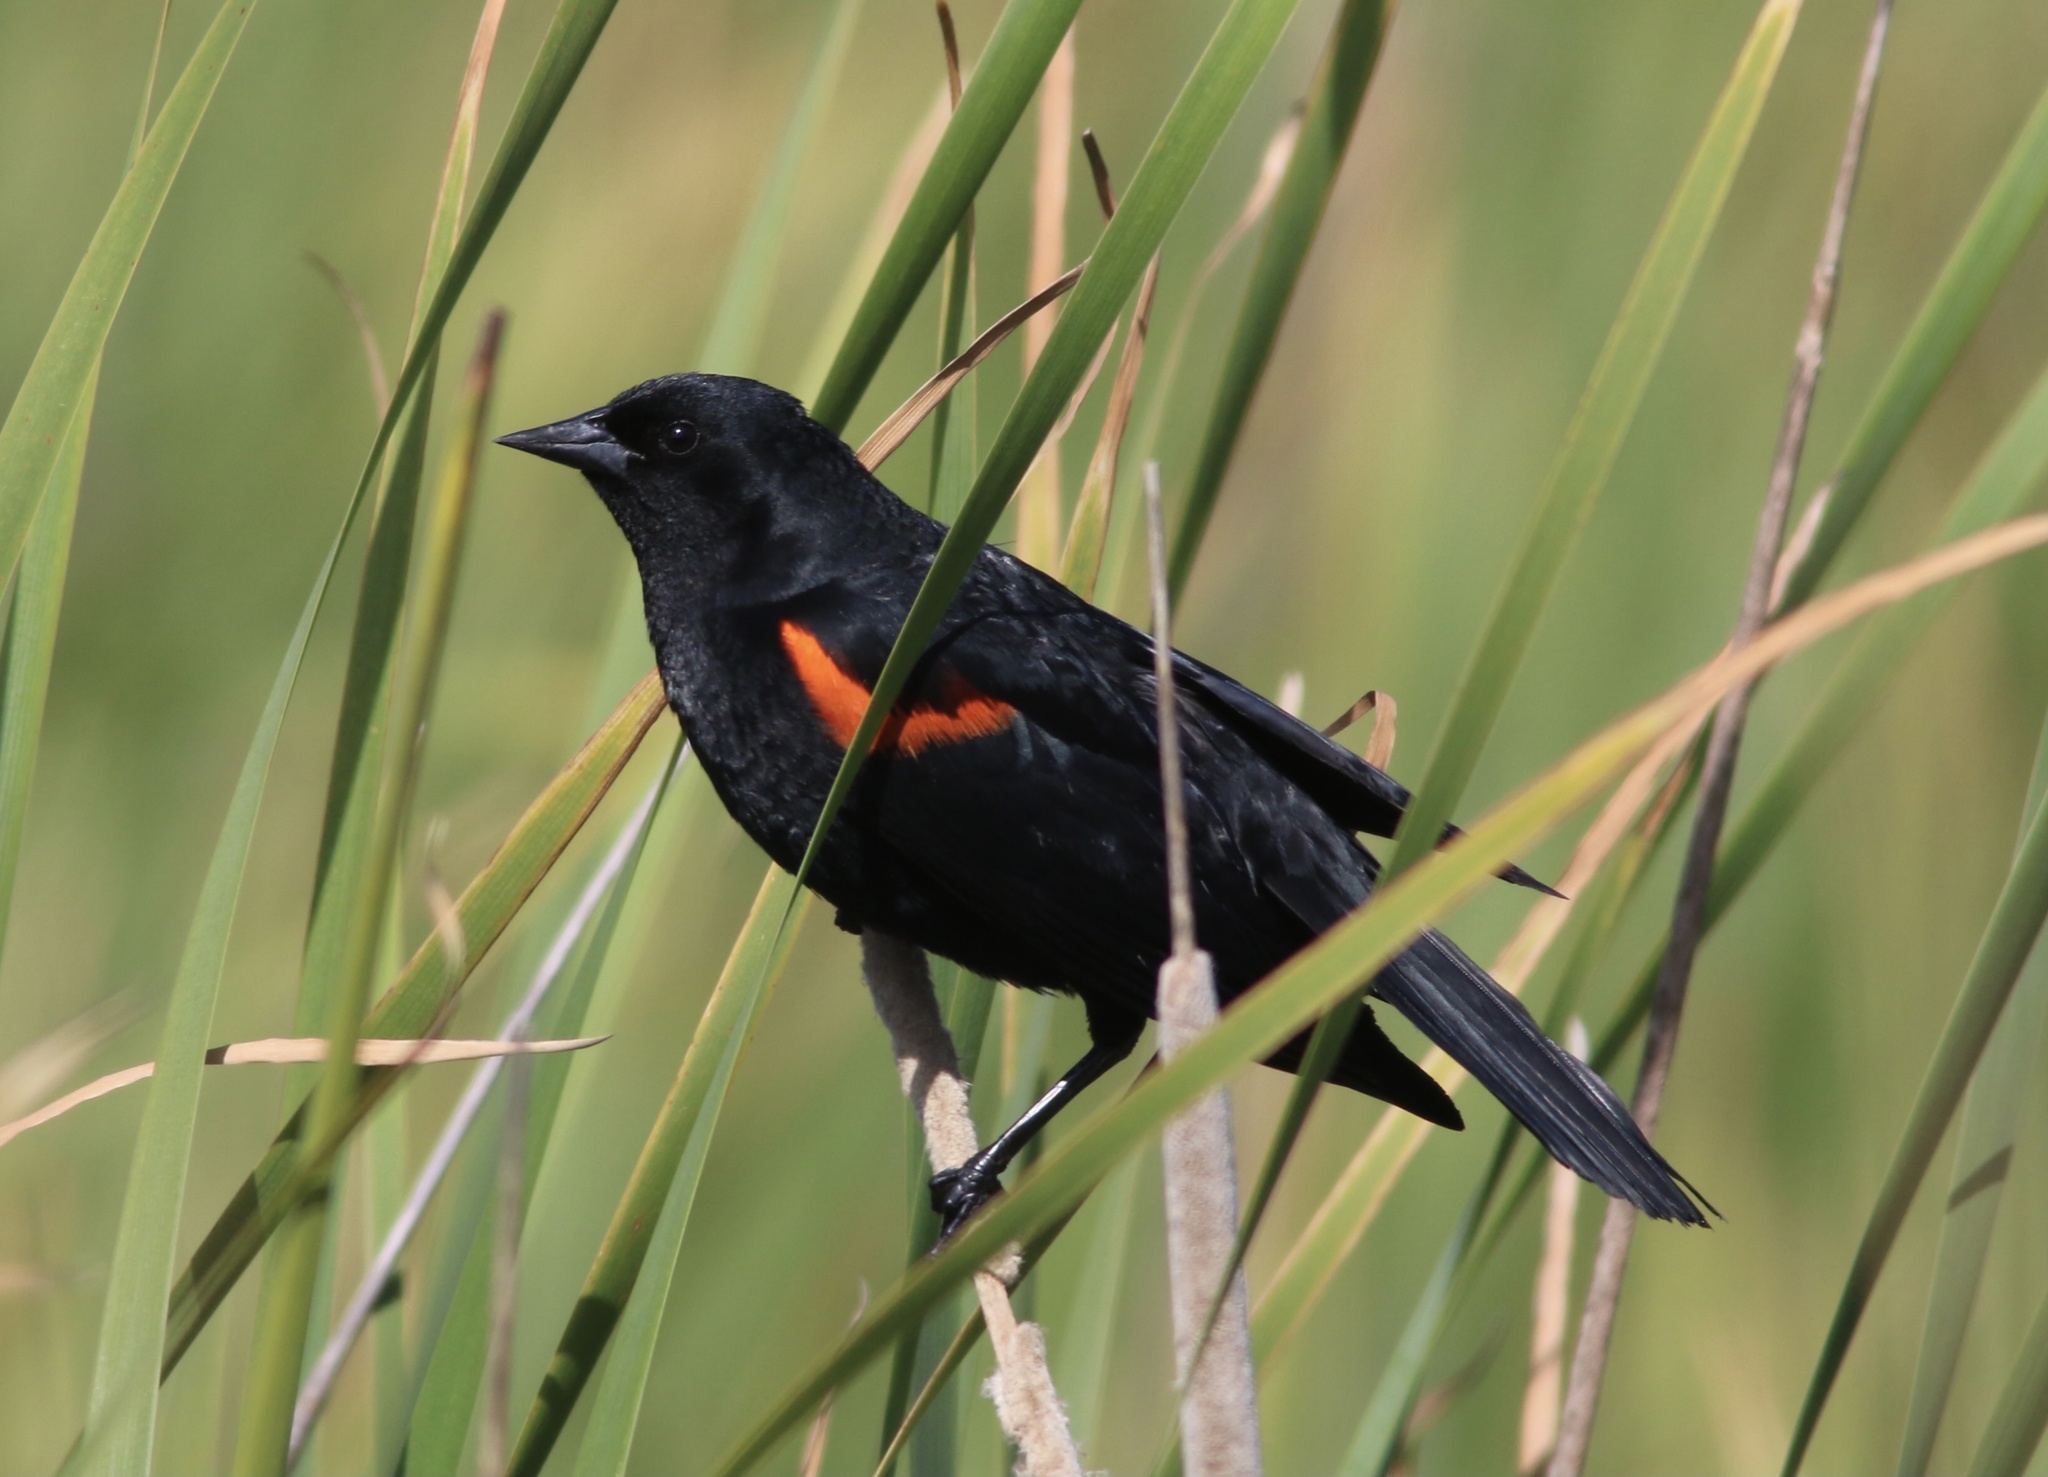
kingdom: Animalia
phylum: Chordata
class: Aves
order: Passeriformes
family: Icteridae
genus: Agelaius
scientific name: Agelaius phoeniceus
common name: Red-winged blackbird
